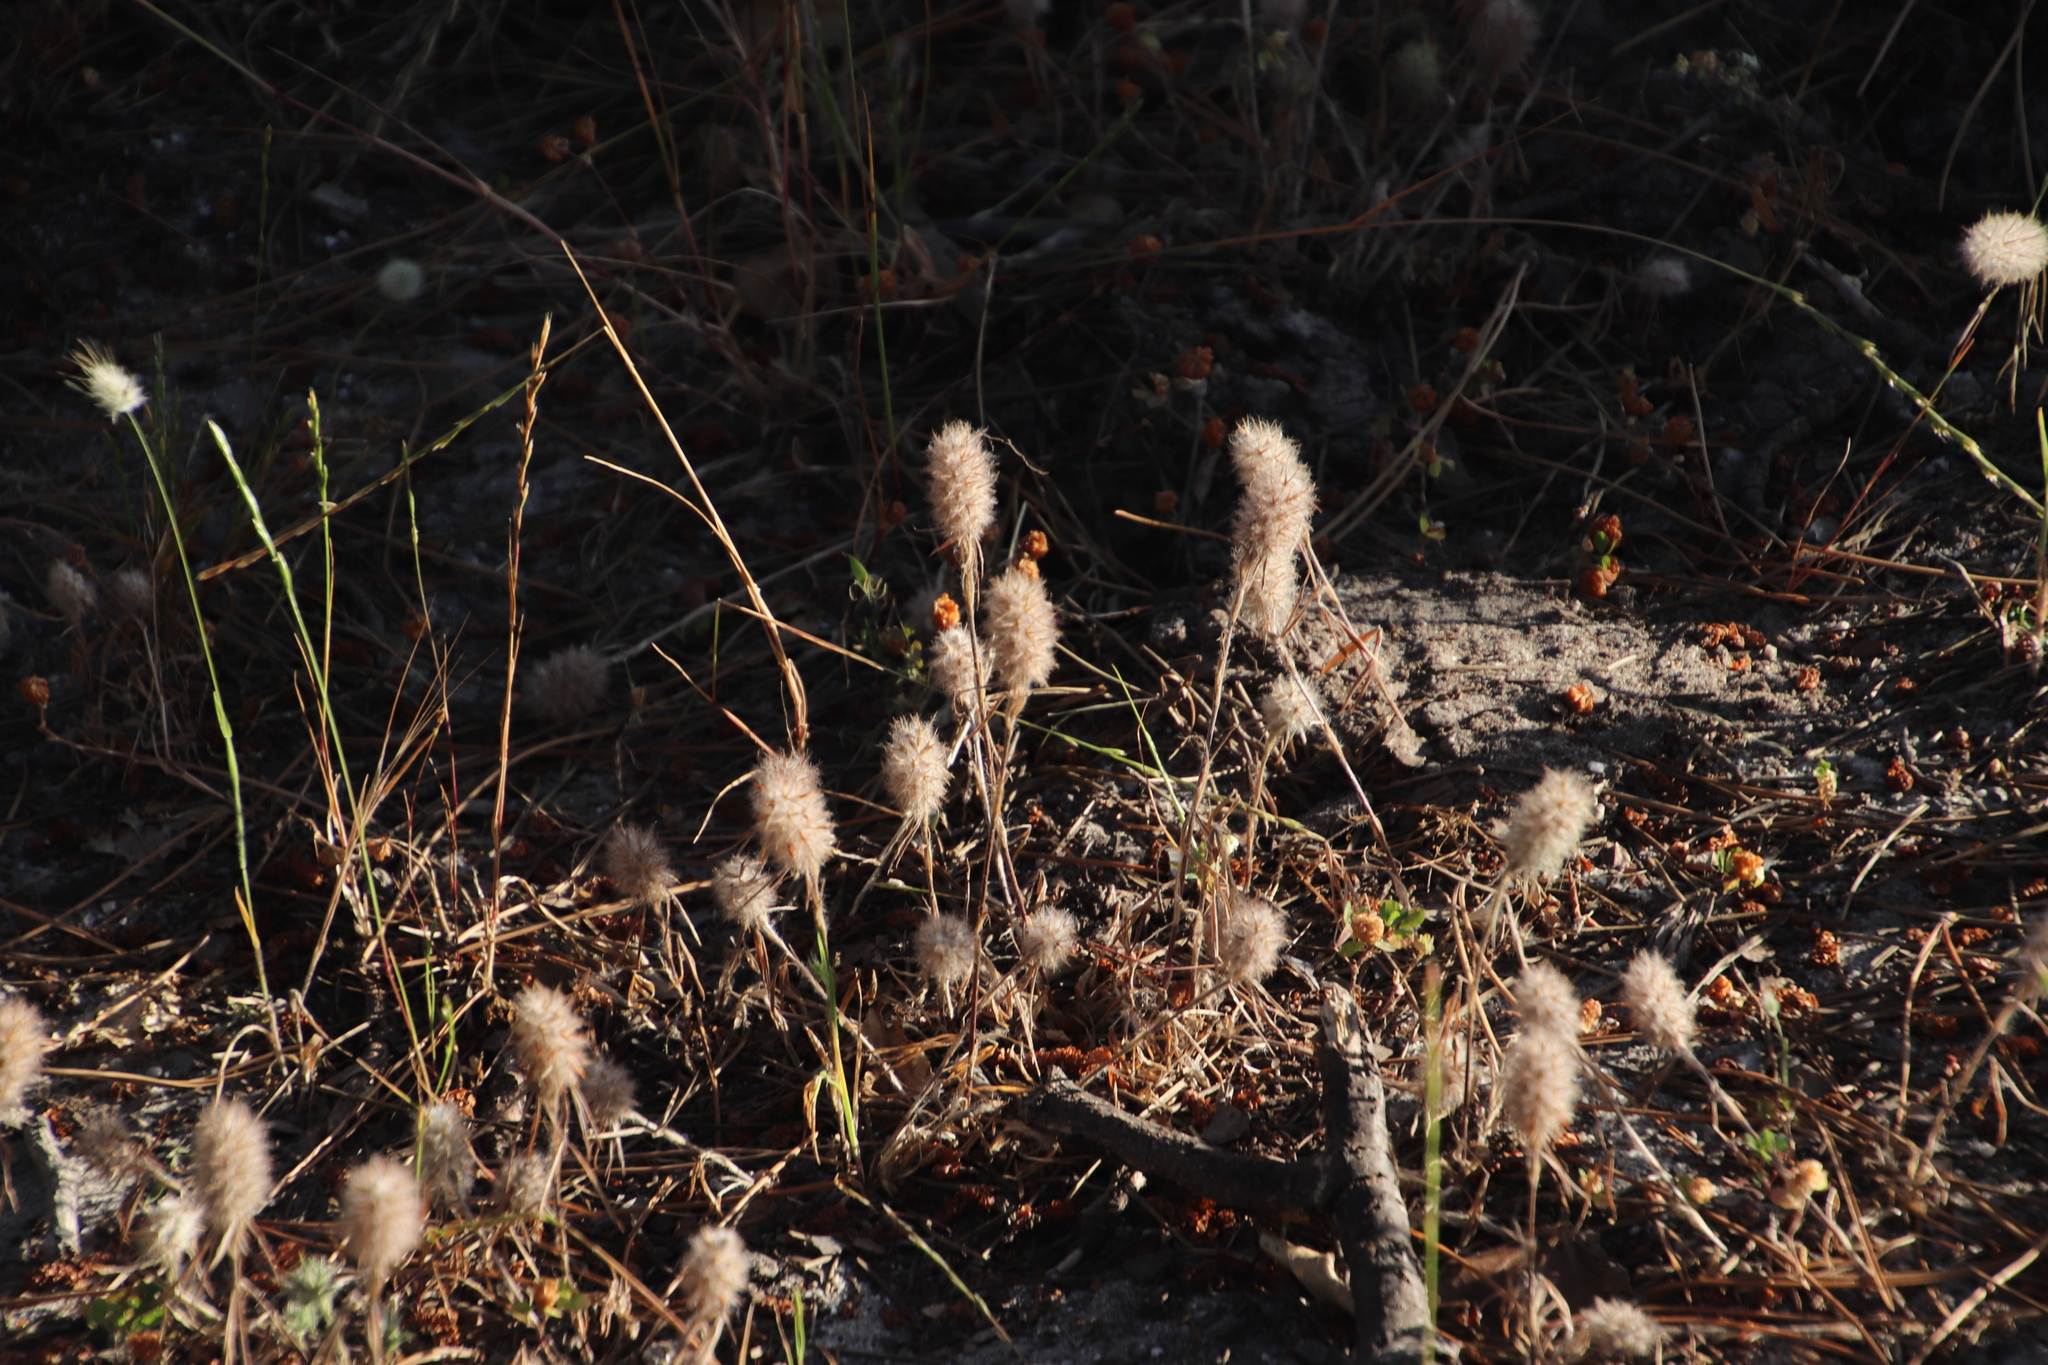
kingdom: Plantae
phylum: Tracheophyta
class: Magnoliopsida
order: Fabales
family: Fabaceae
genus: Trifolium
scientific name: Trifolium angustifolium
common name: Narrow clover
